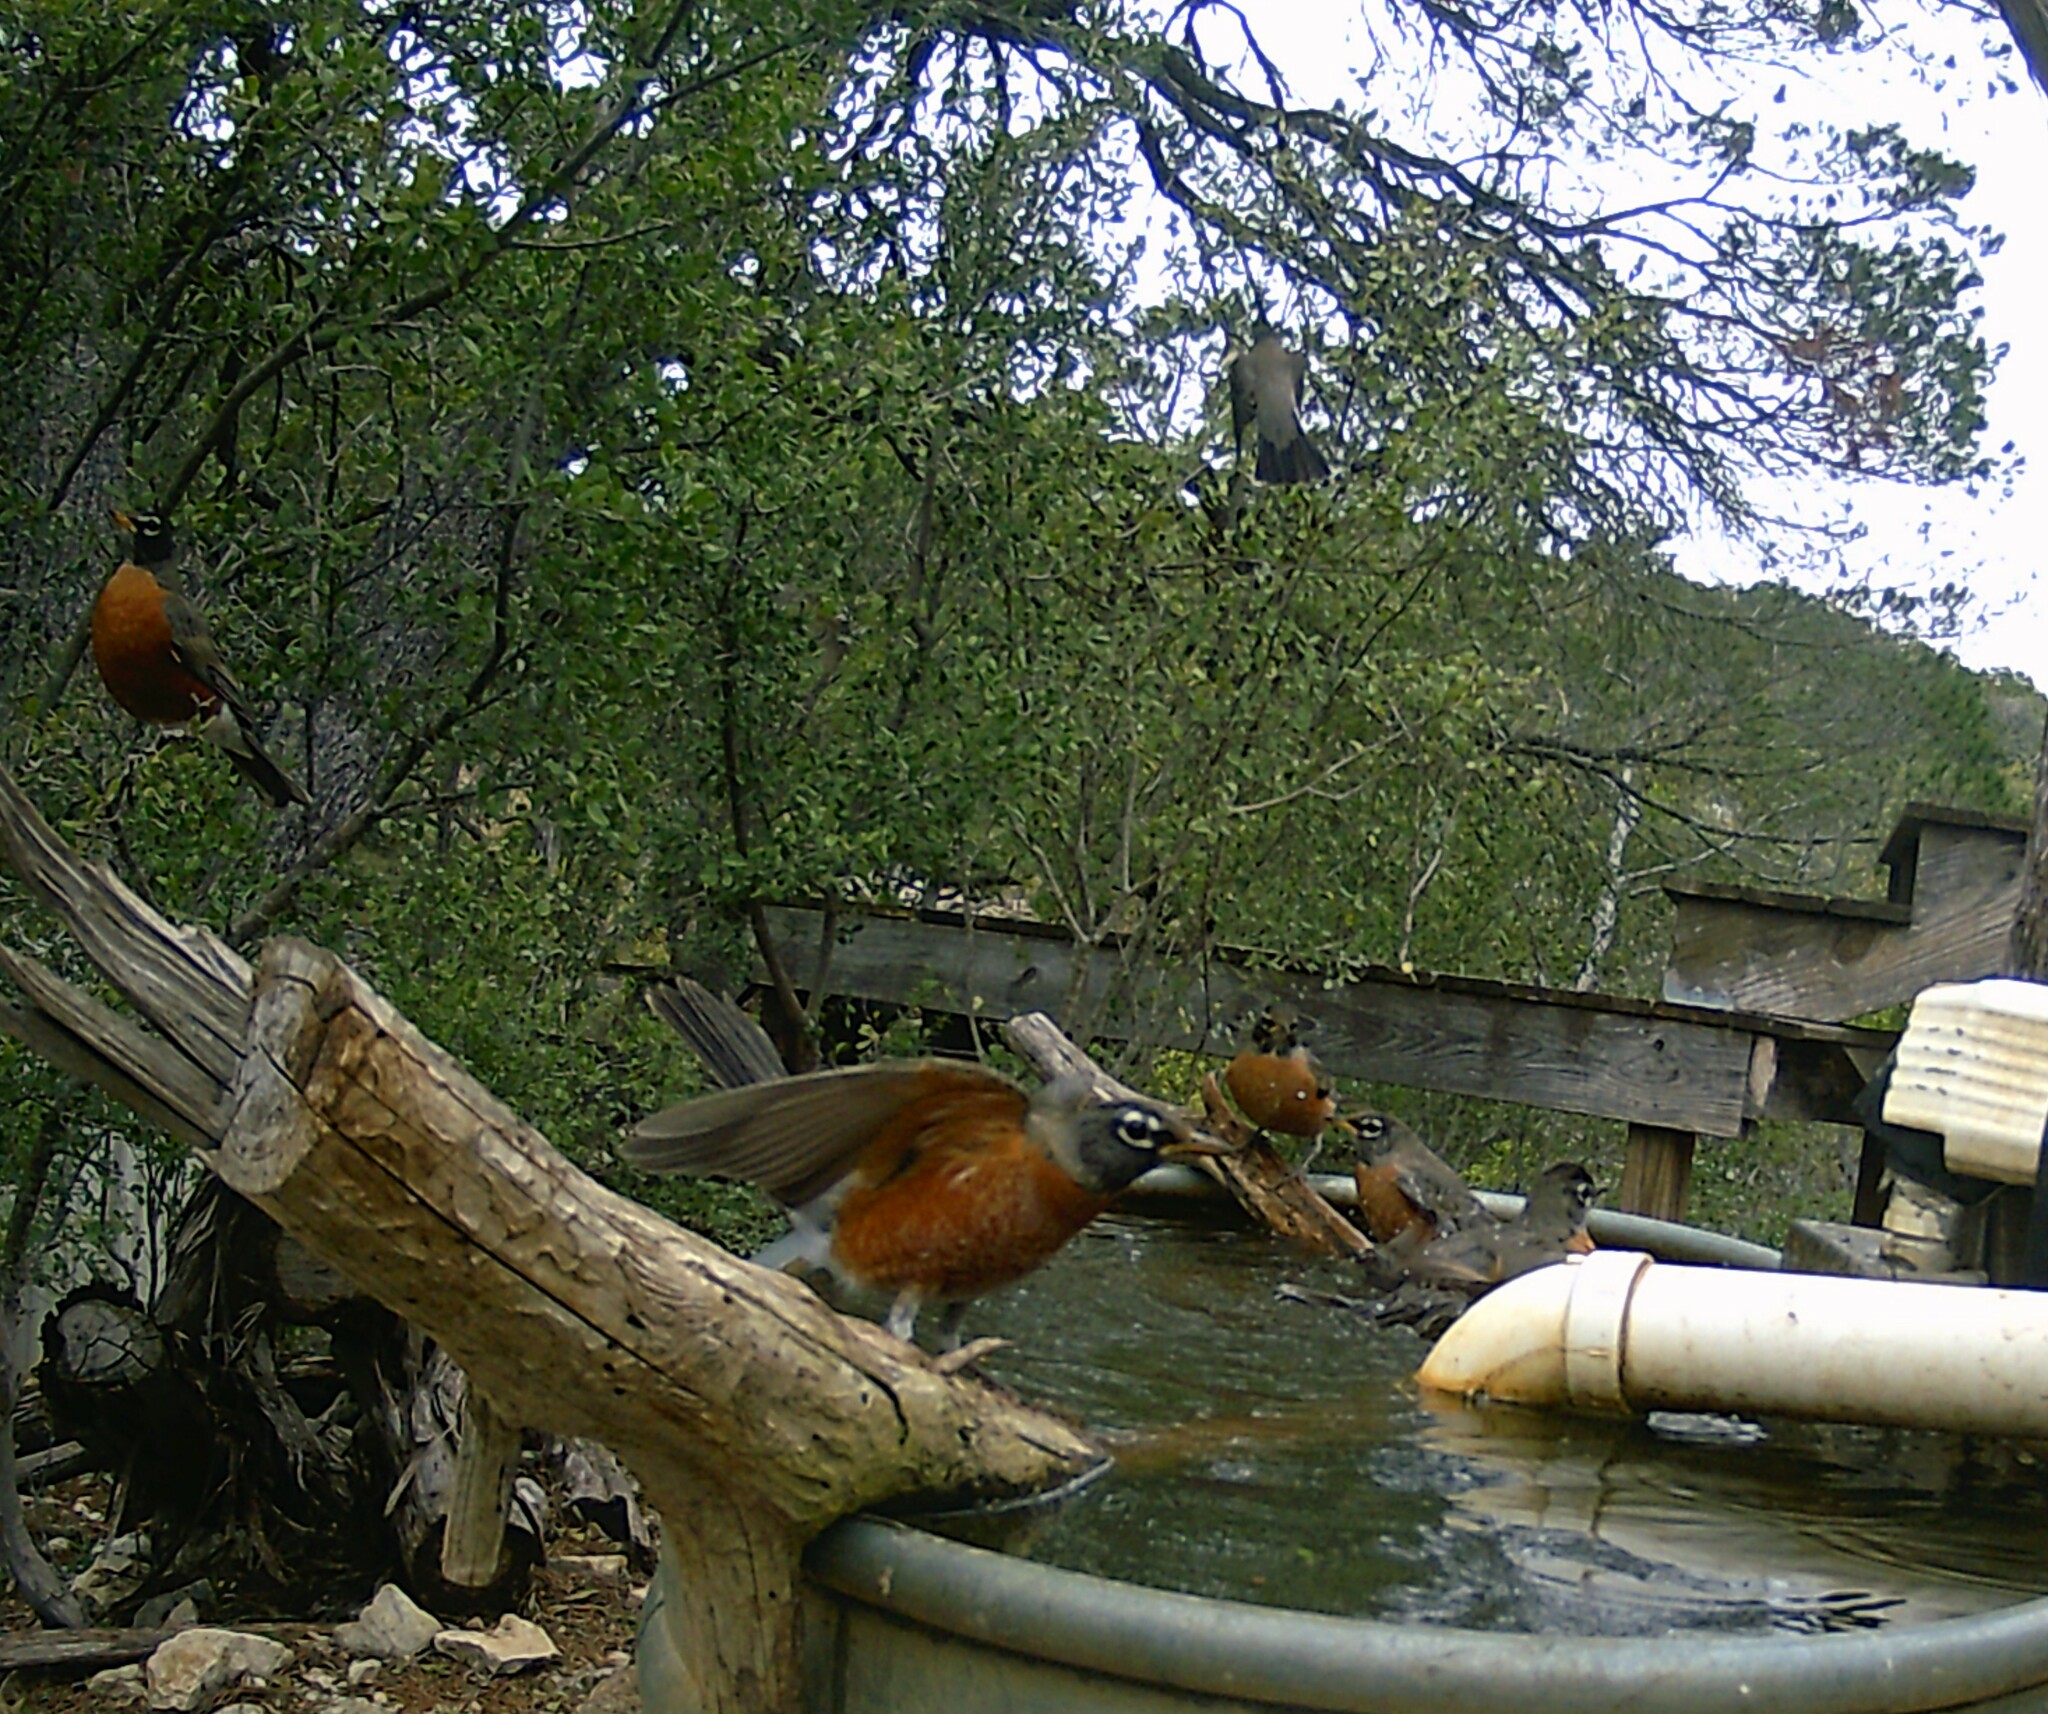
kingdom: Animalia
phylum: Chordata
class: Aves
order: Passeriformes
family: Turdidae
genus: Turdus
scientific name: Turdus migratorius
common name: American robin
